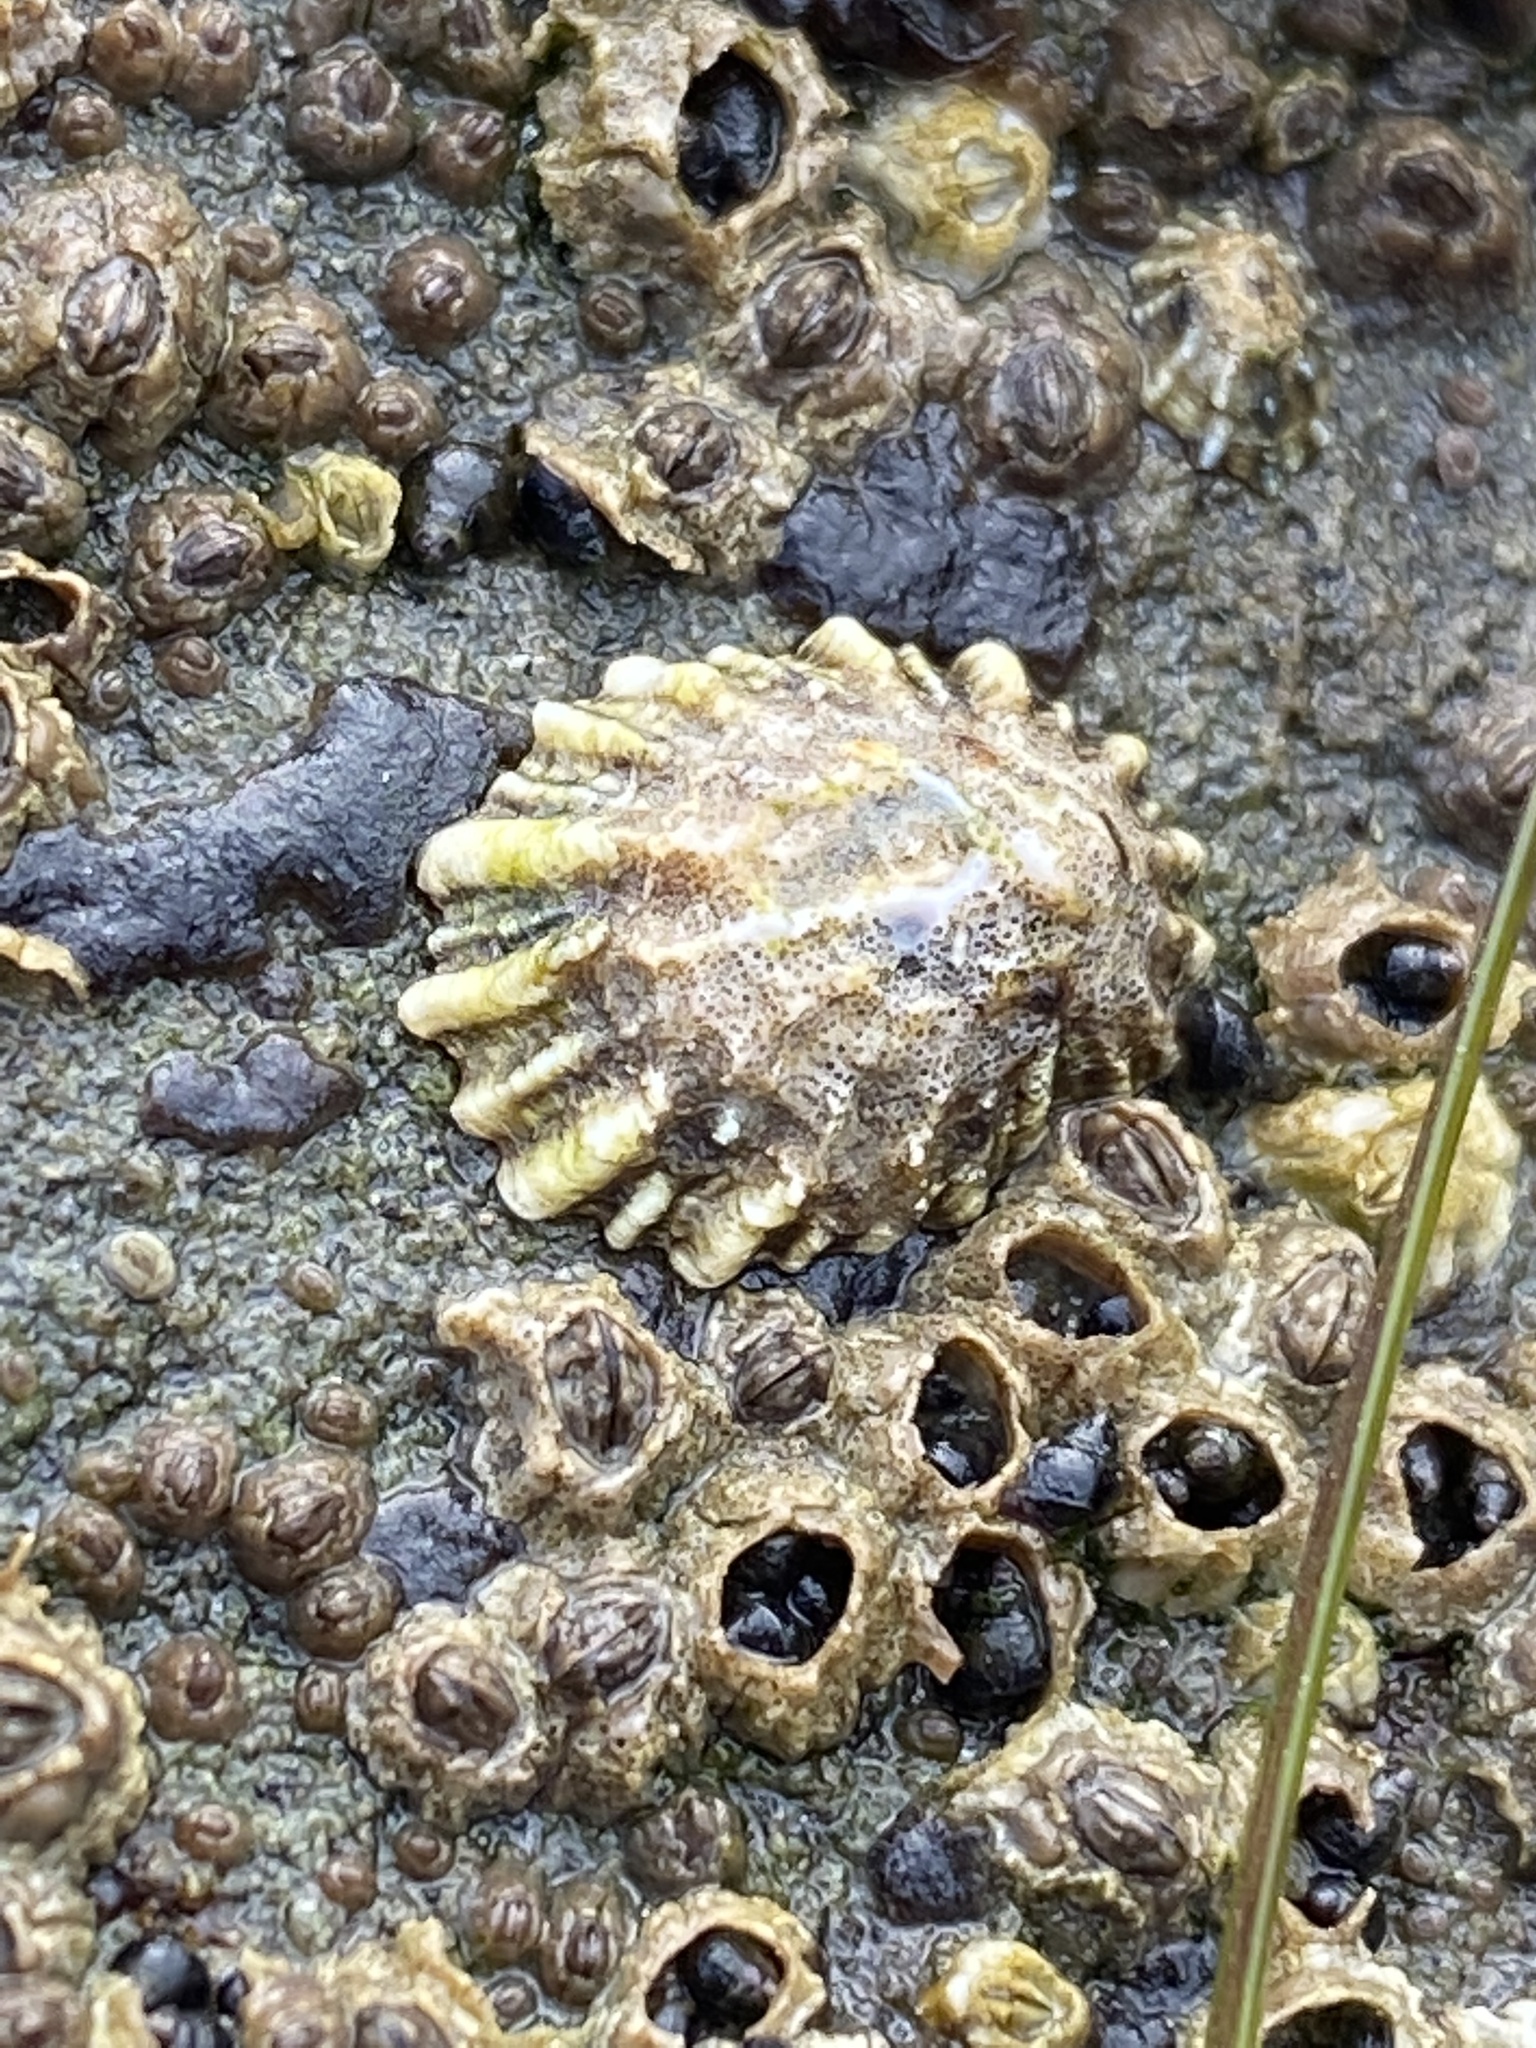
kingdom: Animalia
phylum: Mollusca
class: Gastropoda
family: Lottiidae
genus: Lottia
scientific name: Lottia scabra
